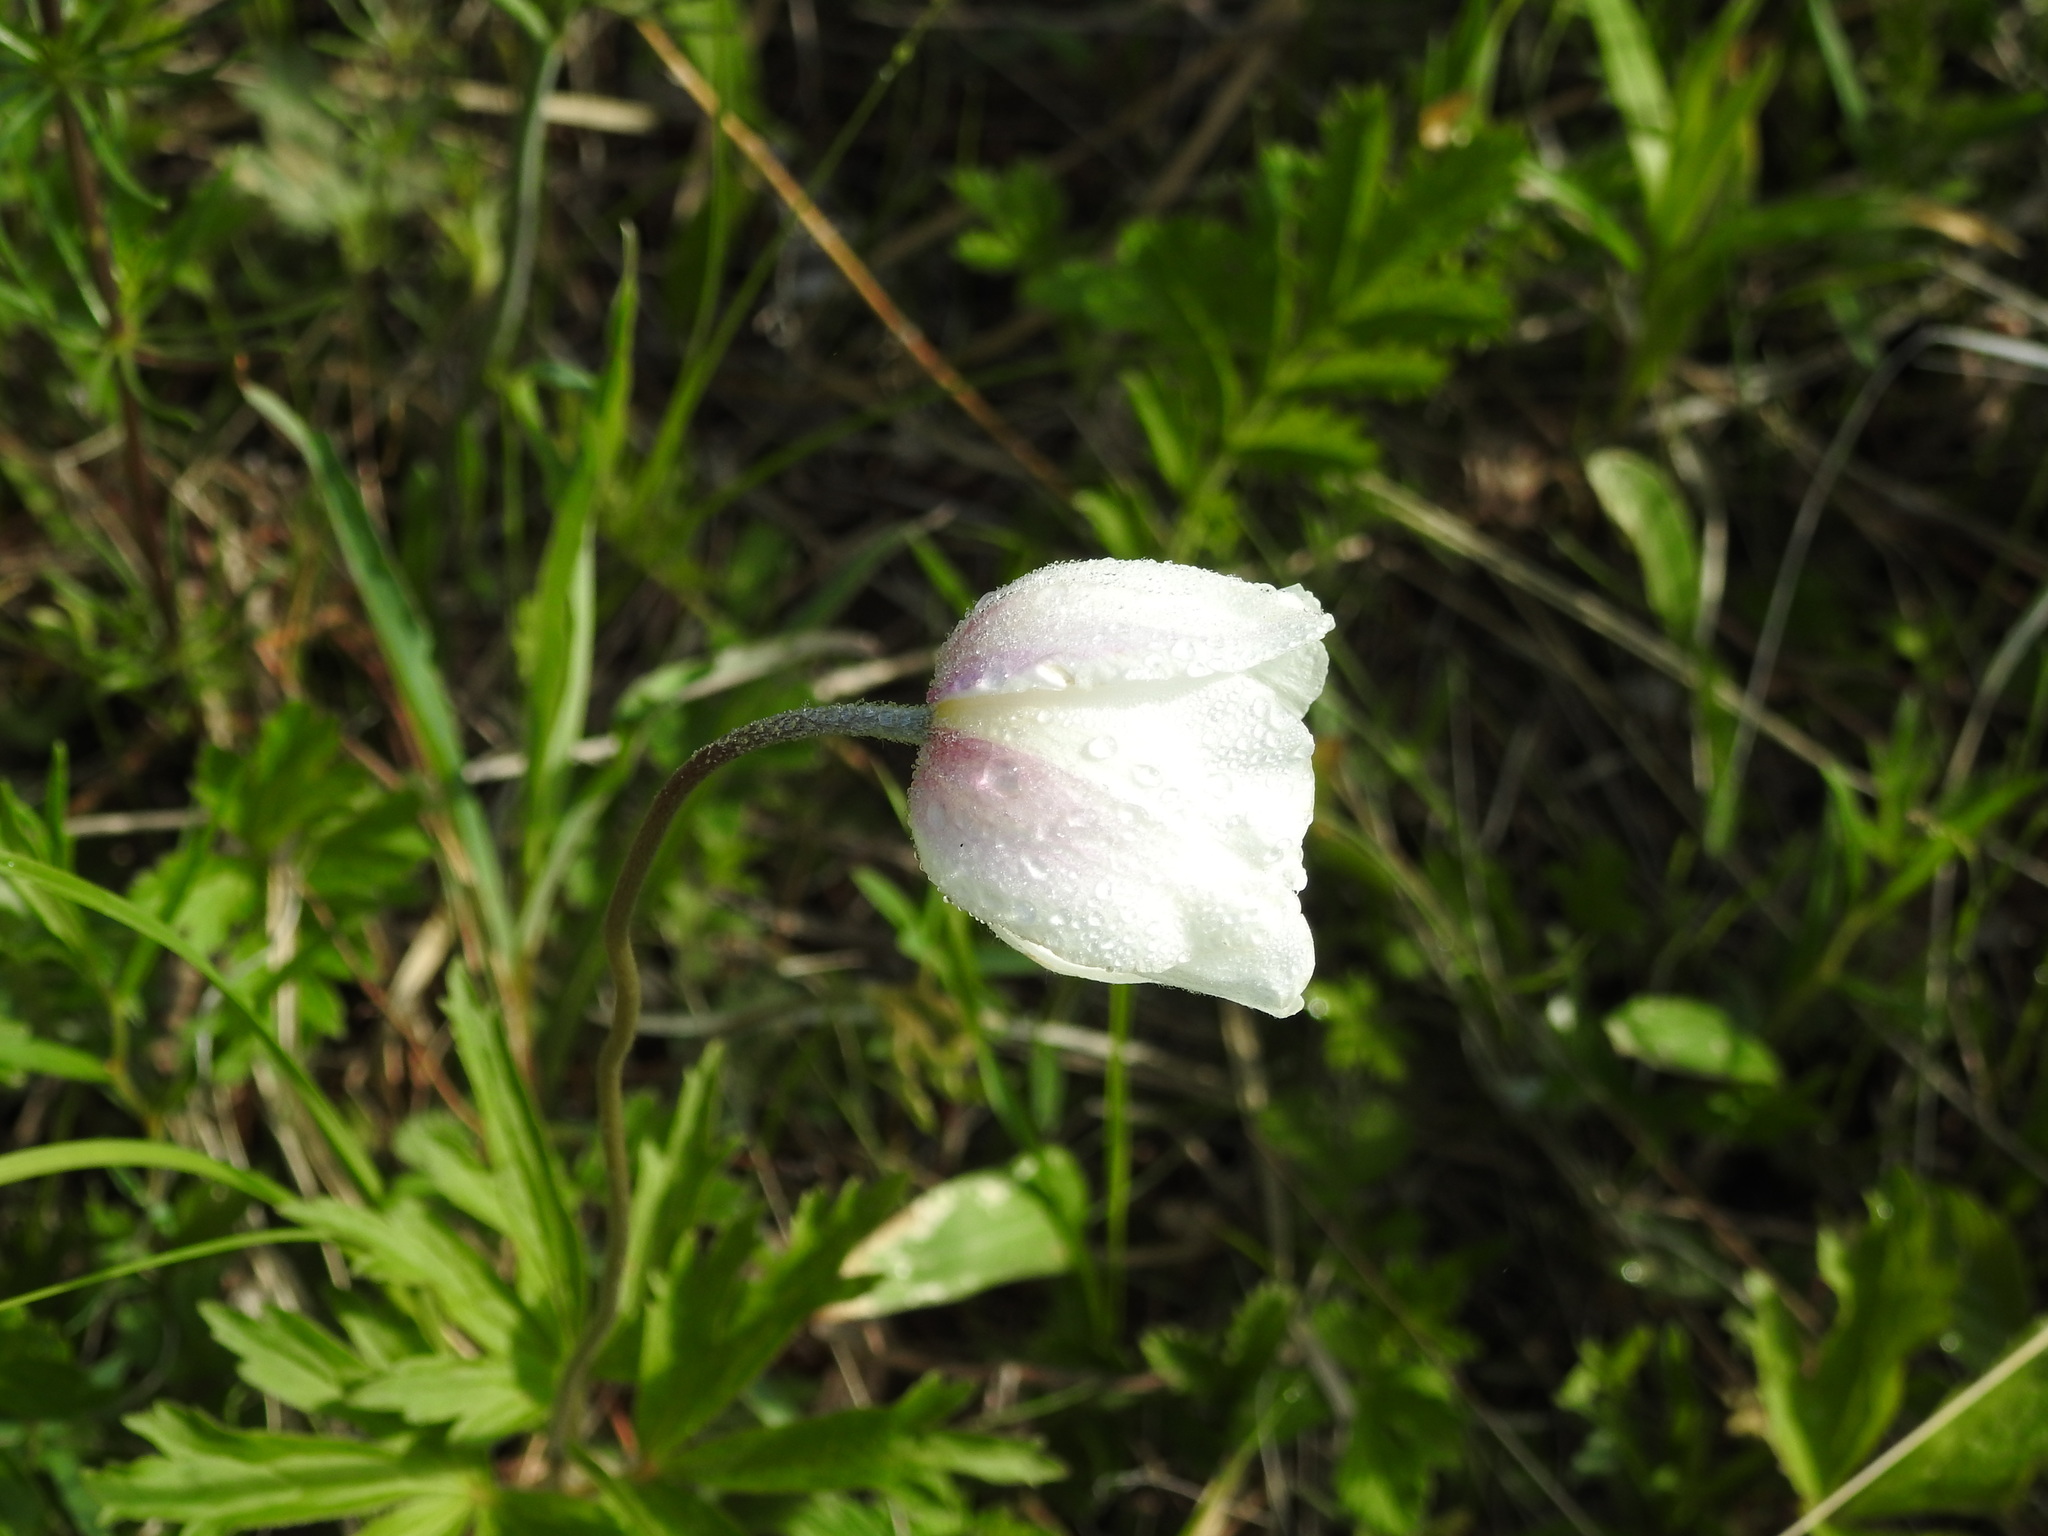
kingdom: Plantae
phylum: Tracheophyta
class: Magnoliopsida
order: Ranunculales
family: Ranunculaceae
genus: Anemone
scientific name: Anemone sylvestris
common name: Snowdrop anemone
